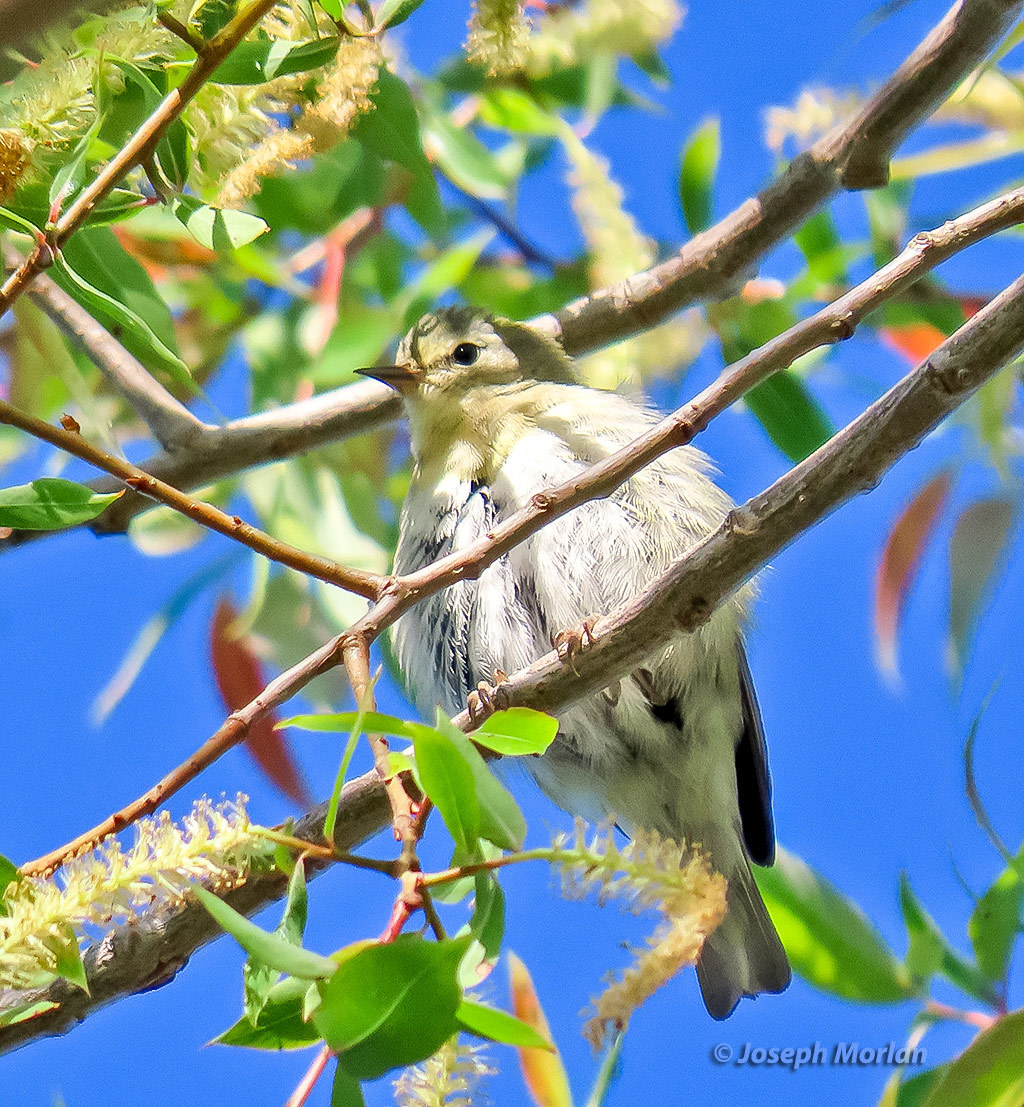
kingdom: Animalia
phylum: Chordata
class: Aves
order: Passeriformes
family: Parulidae
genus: Leiothlypis
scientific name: Leiothlypis peregrina
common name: Tennessee warbler
